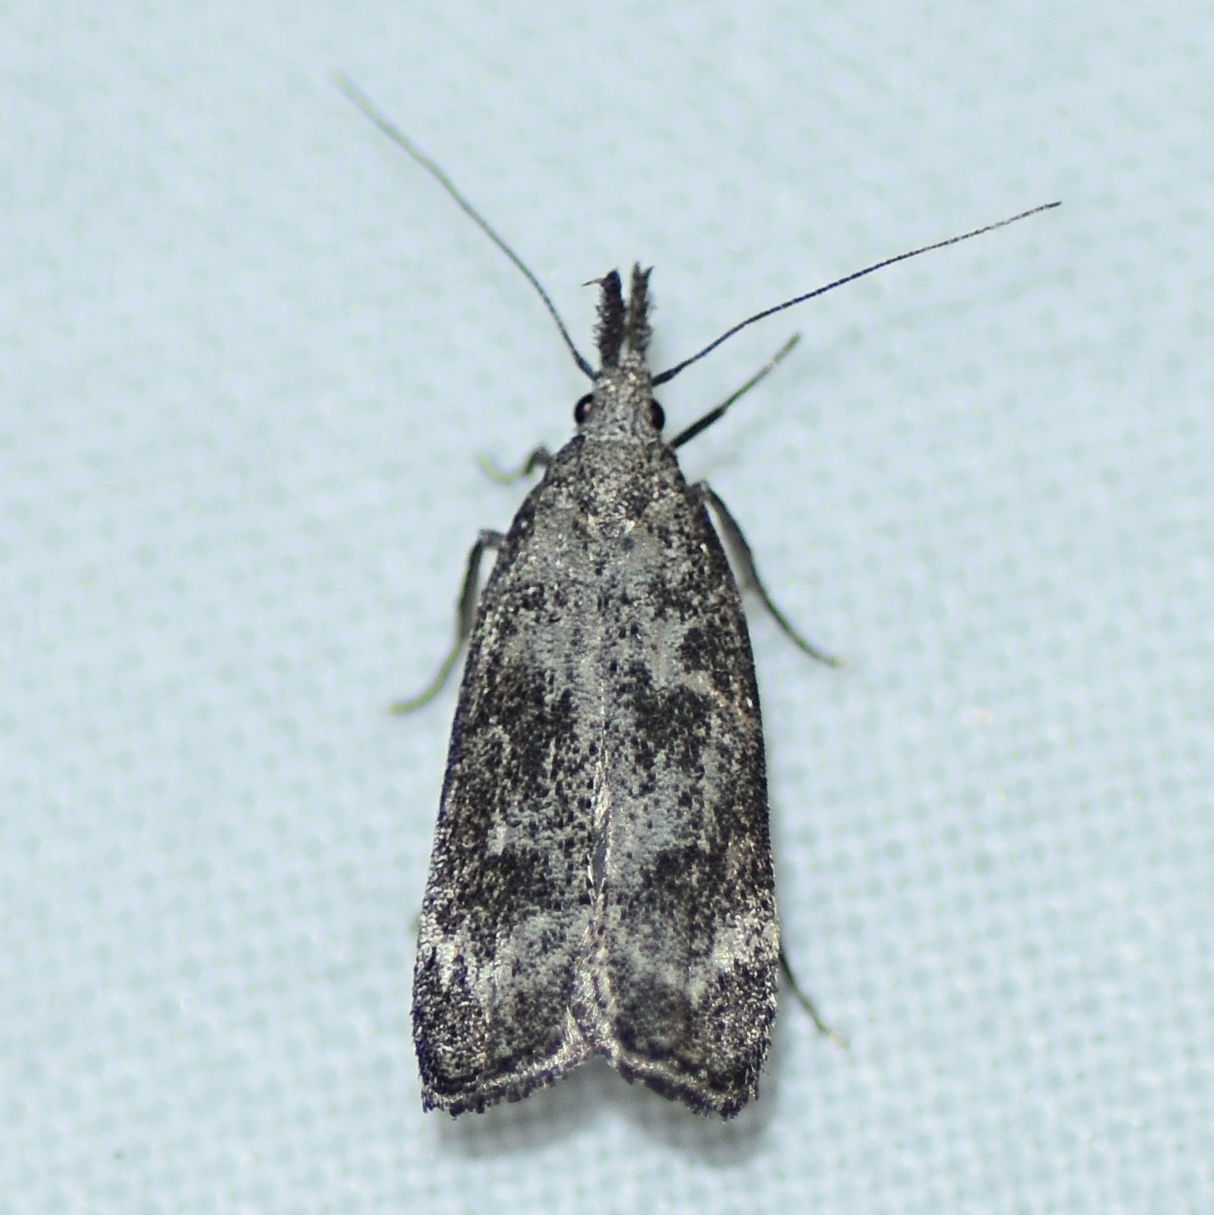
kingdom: Animalia
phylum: Arthropoda
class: Insecta
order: Lepidoptera
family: Gelechiidae
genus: Dichomeris
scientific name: Dichomeris inversella
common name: Inverse dichomeris moth
